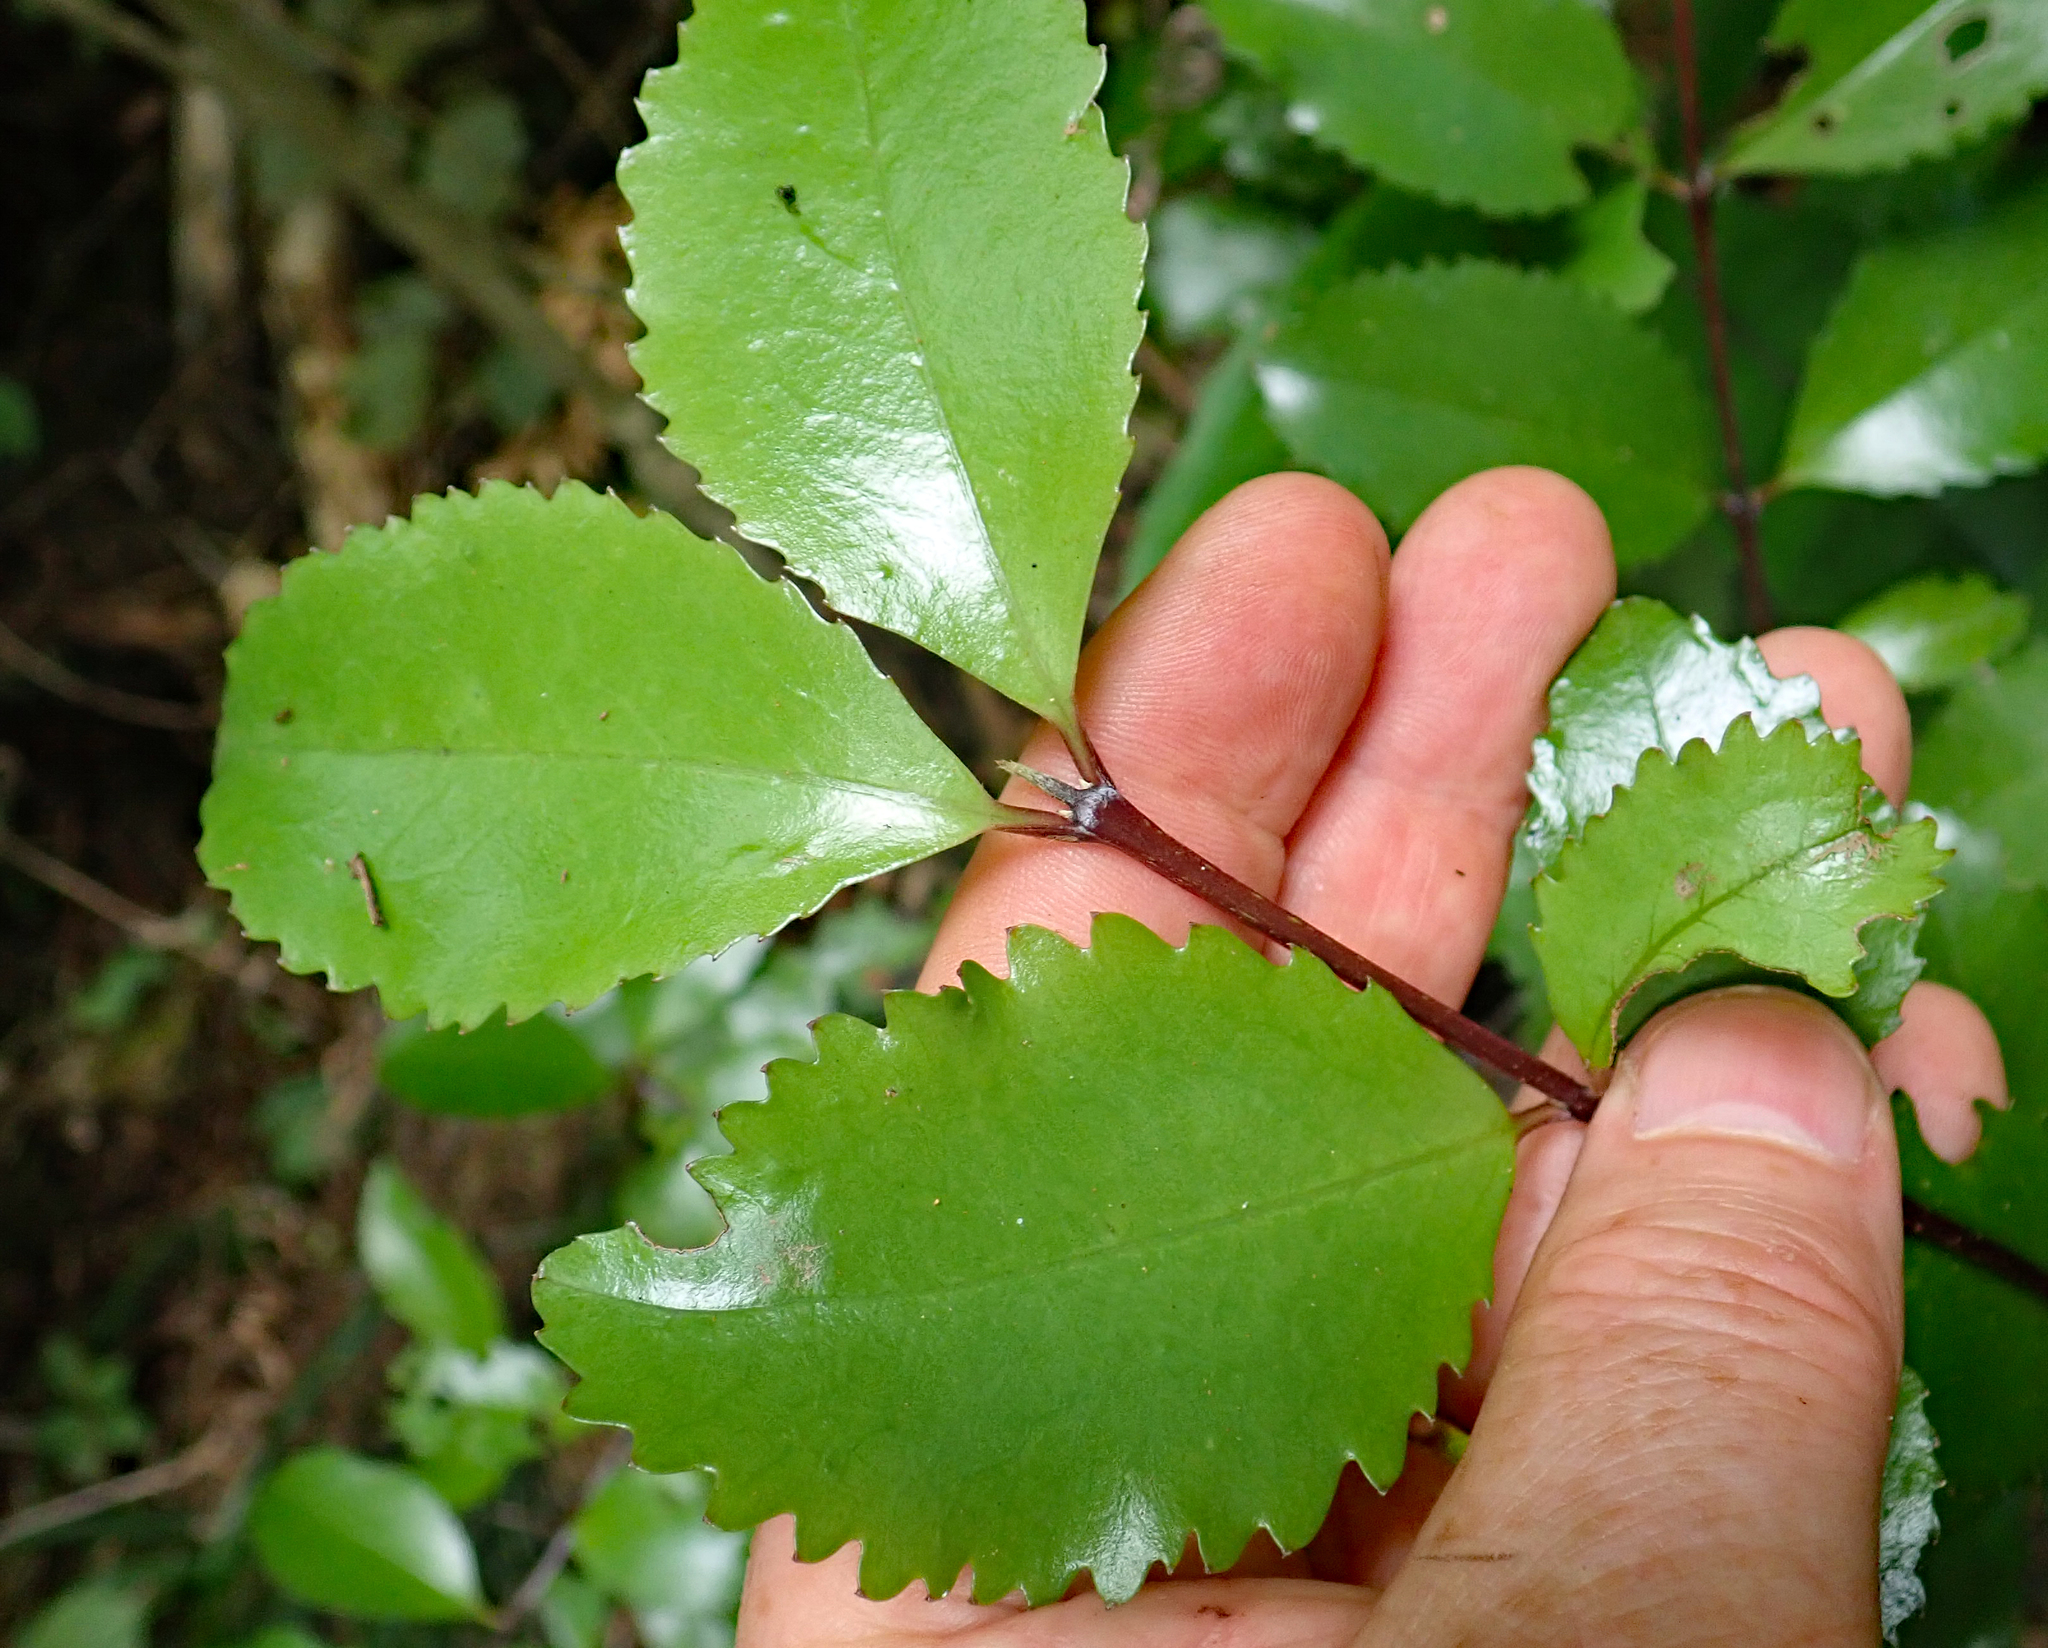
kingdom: Plantae
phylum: Tracheophyta
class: Magnoliopsida
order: Laurales
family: Atherospermataceae
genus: Laurelia
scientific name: Laurelia novae-zelandiae
